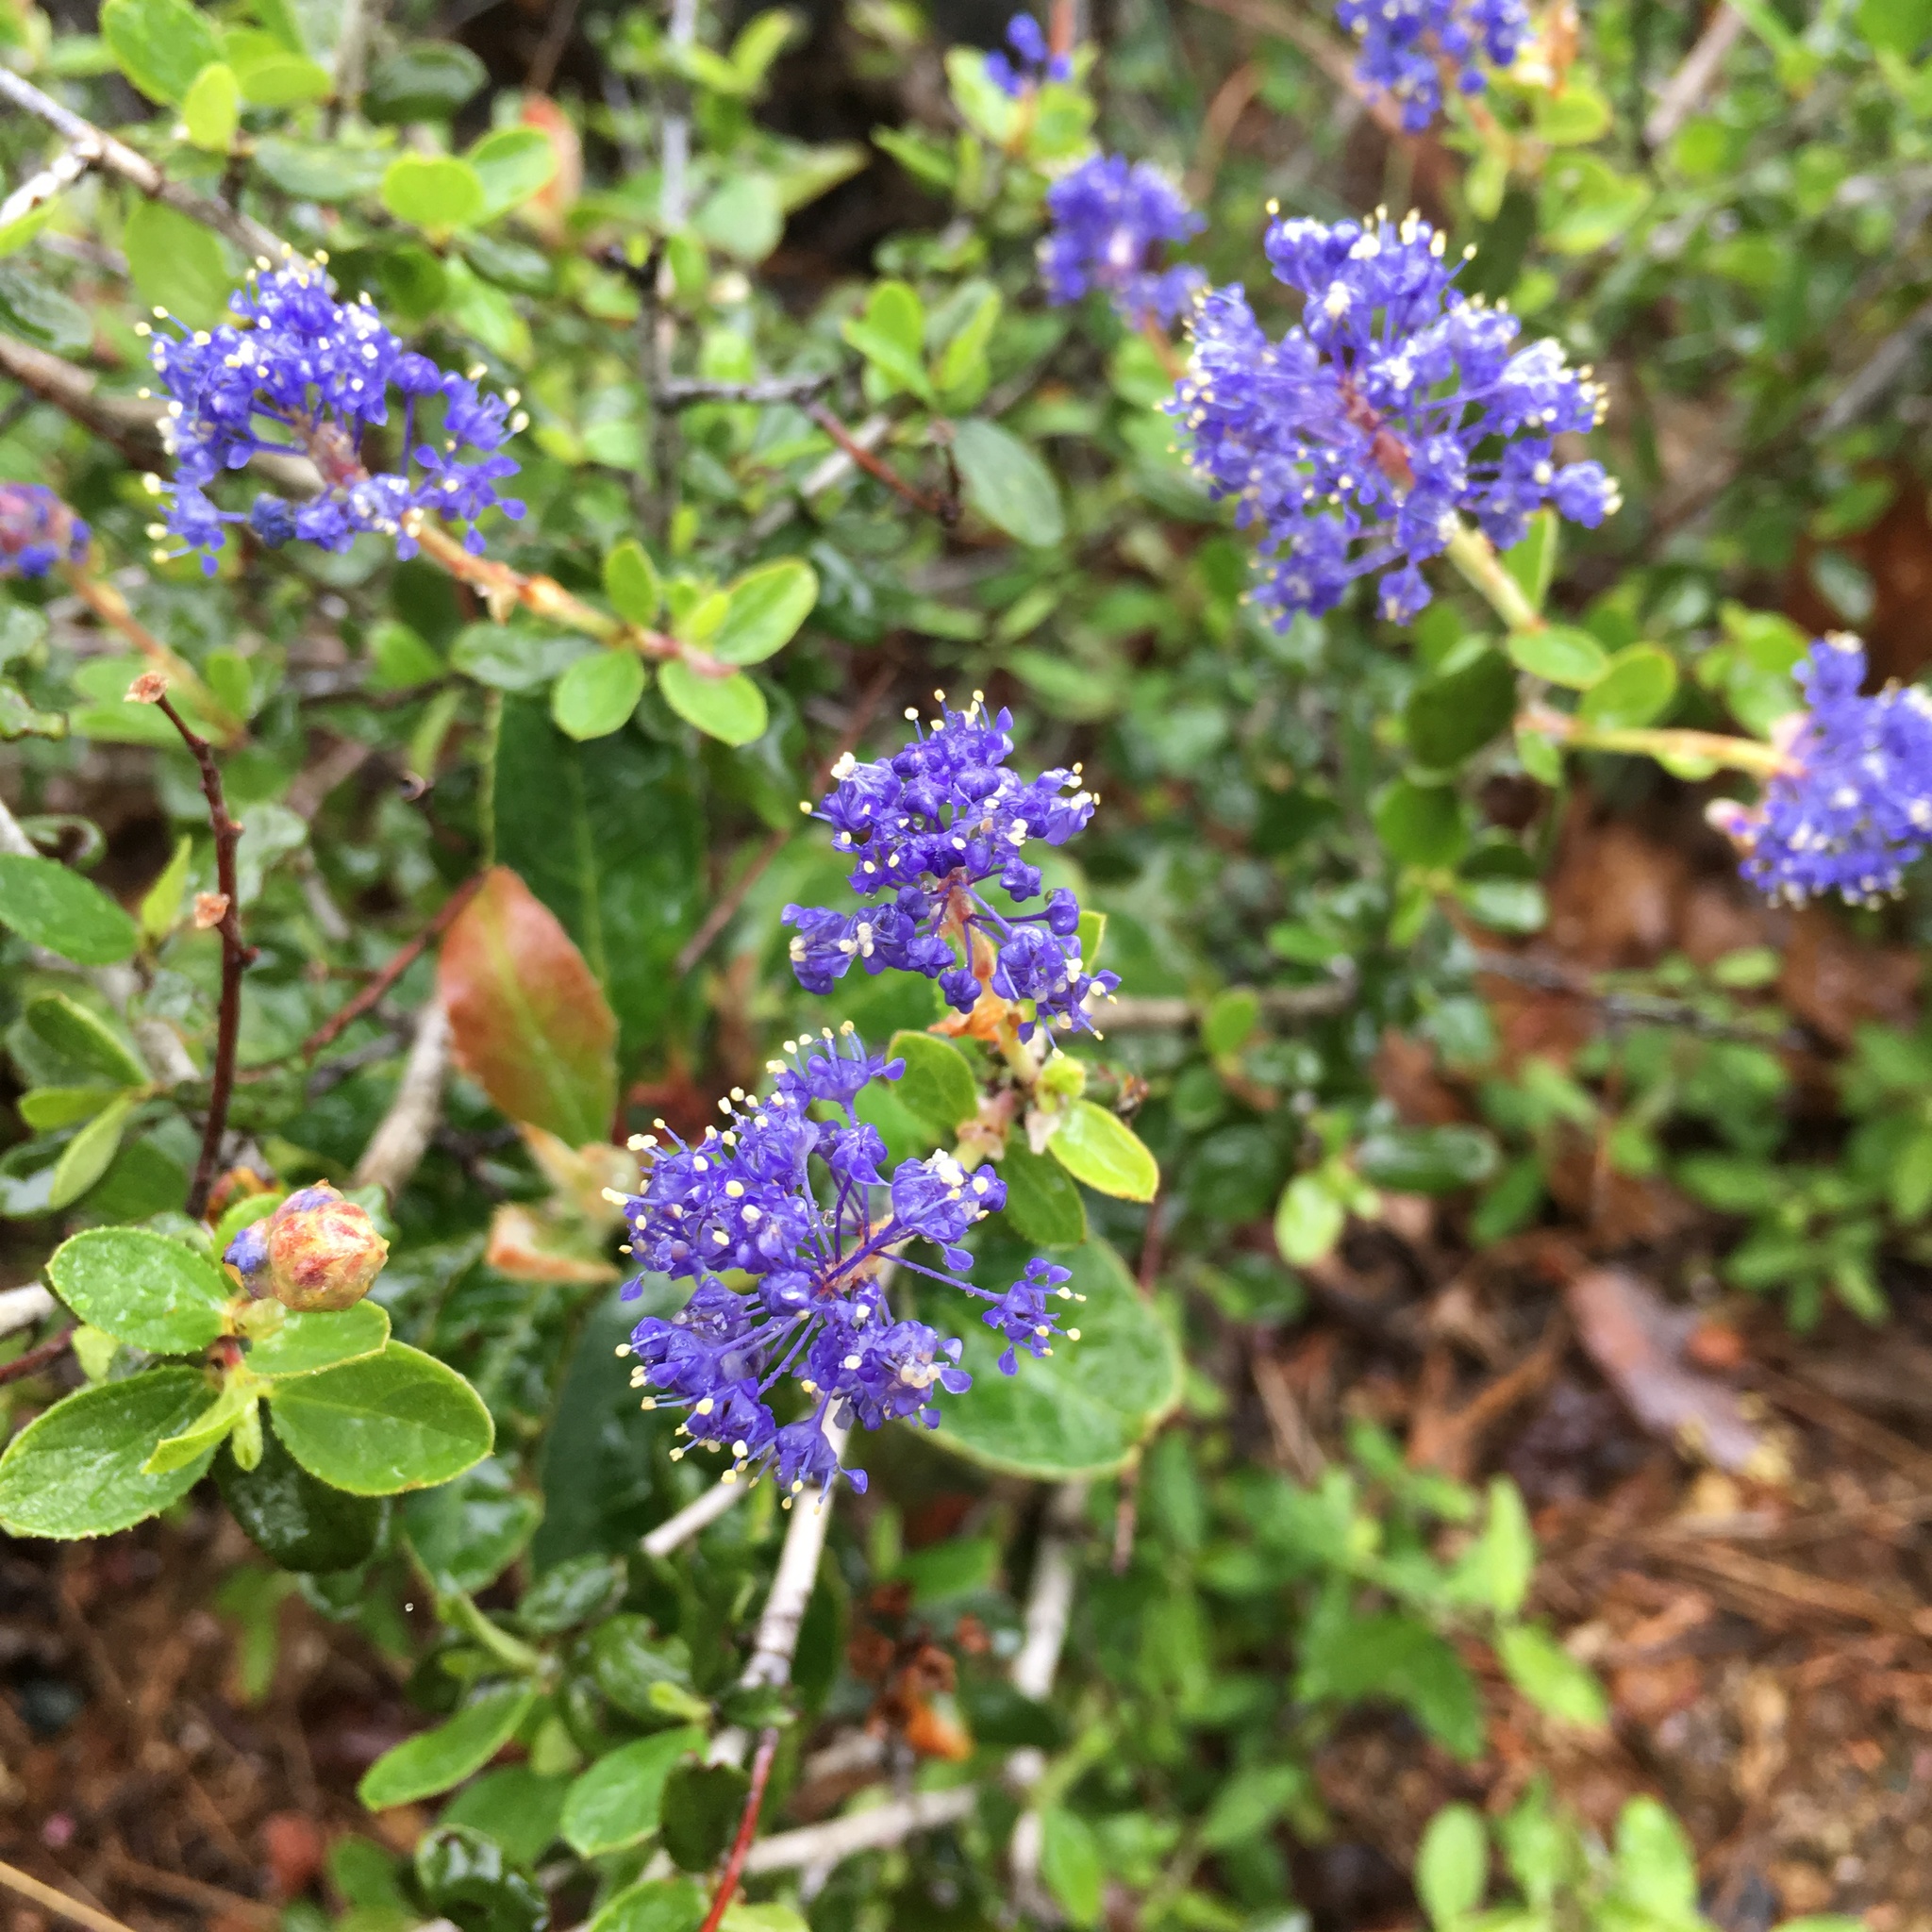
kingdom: Plantae
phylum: Tracheophyta
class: Magnoliopsida
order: Rosales
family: Rhamnaceae
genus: Ceanothus
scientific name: Ceanothus lemmonii
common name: Lemmon's ceanothus
